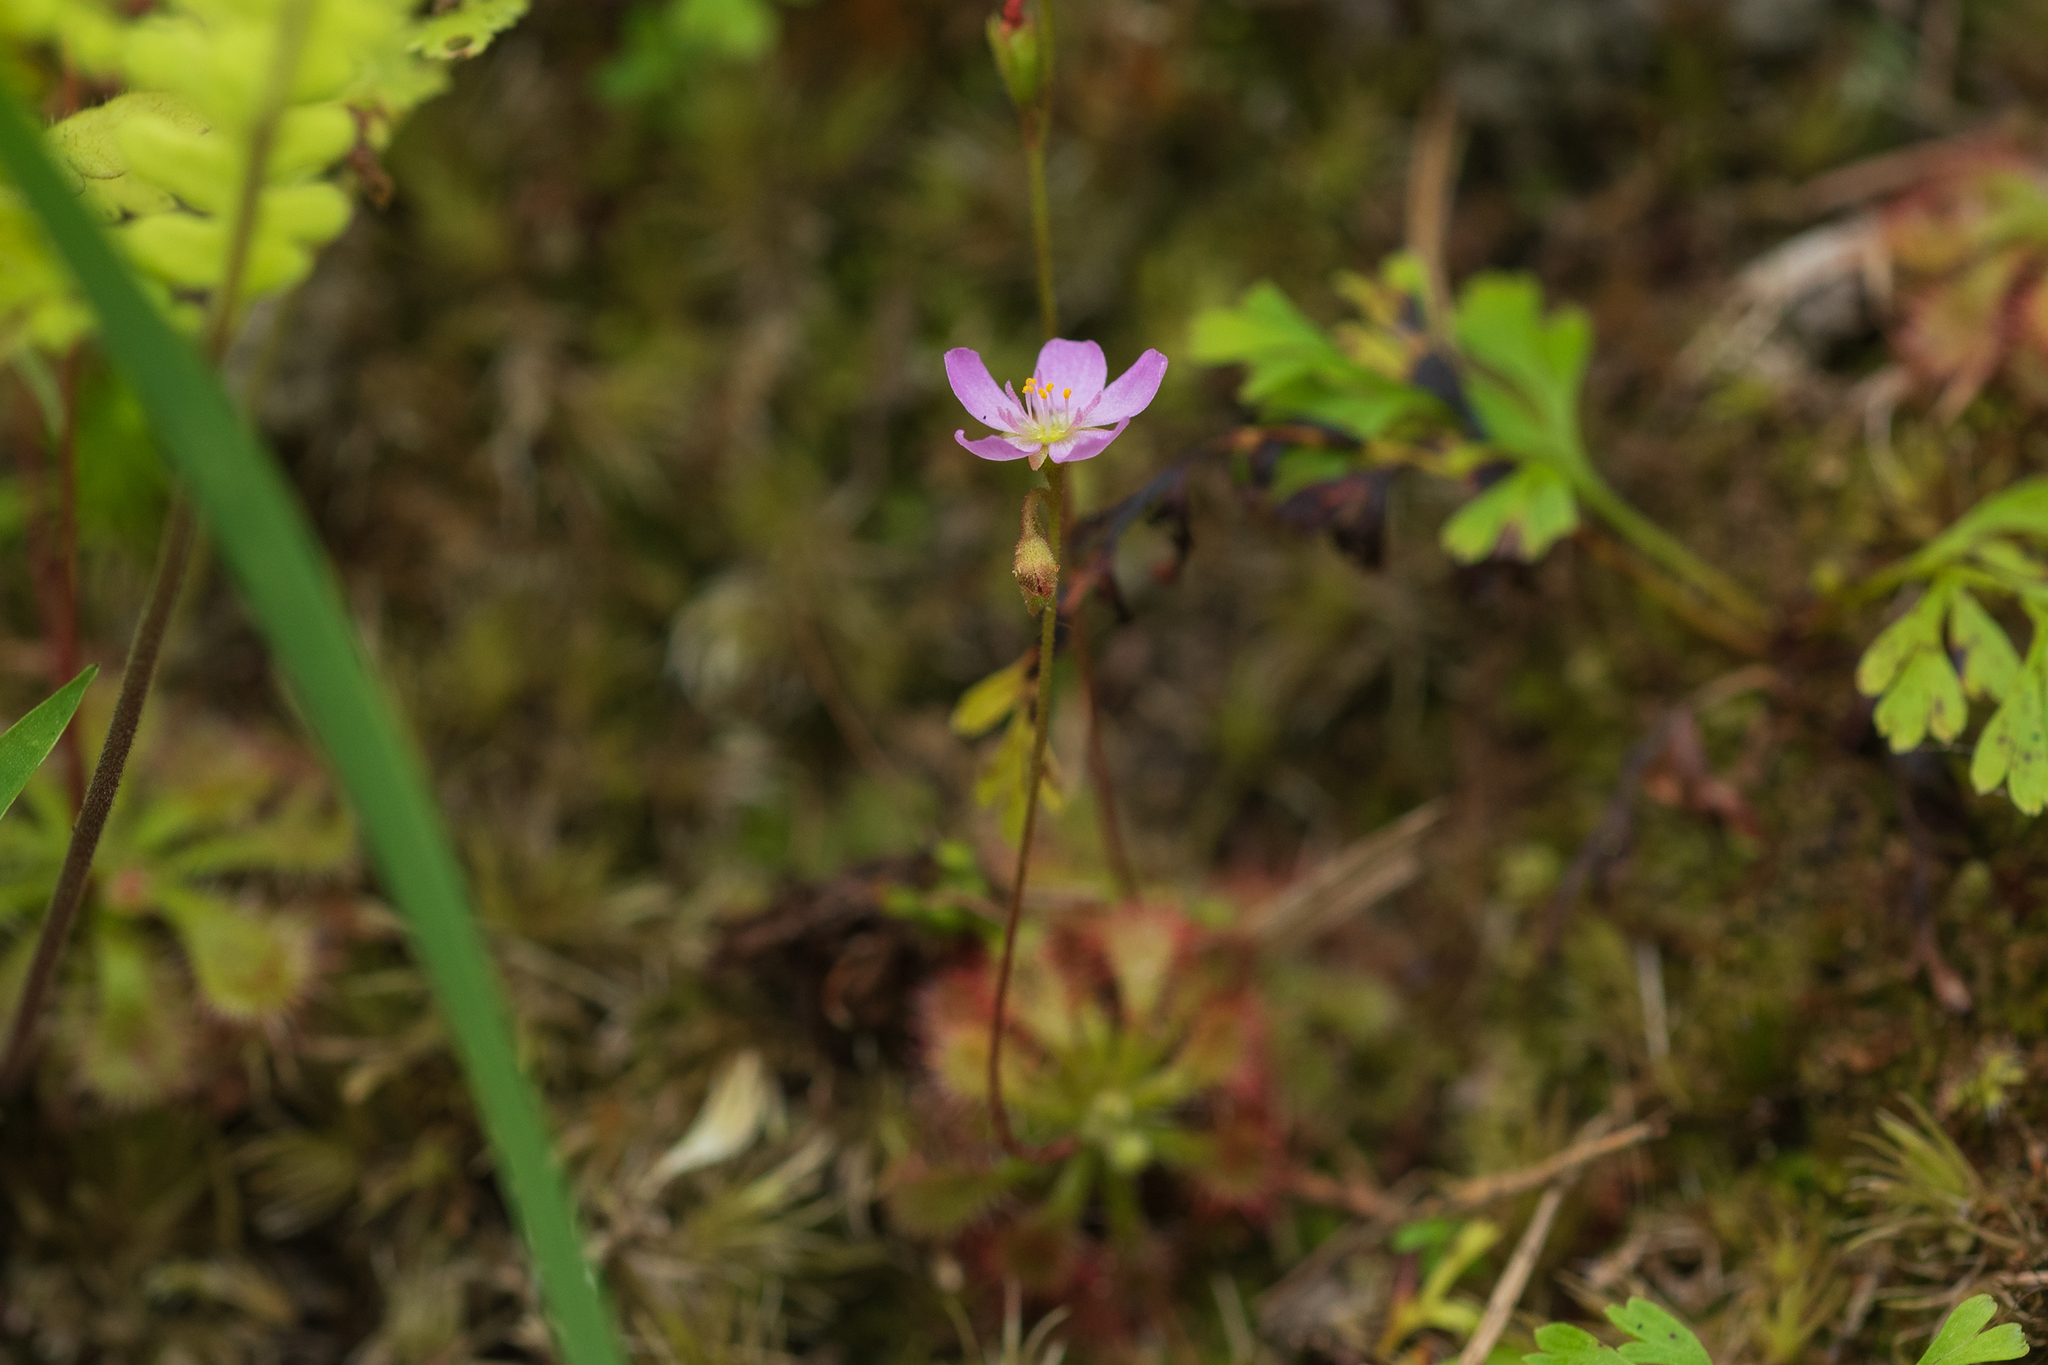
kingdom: Plantae
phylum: Tracheophyta
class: Magnoliopsida
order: Caryophyllales
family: Droseraceae
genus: Drosera
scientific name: Drosera spatulata
